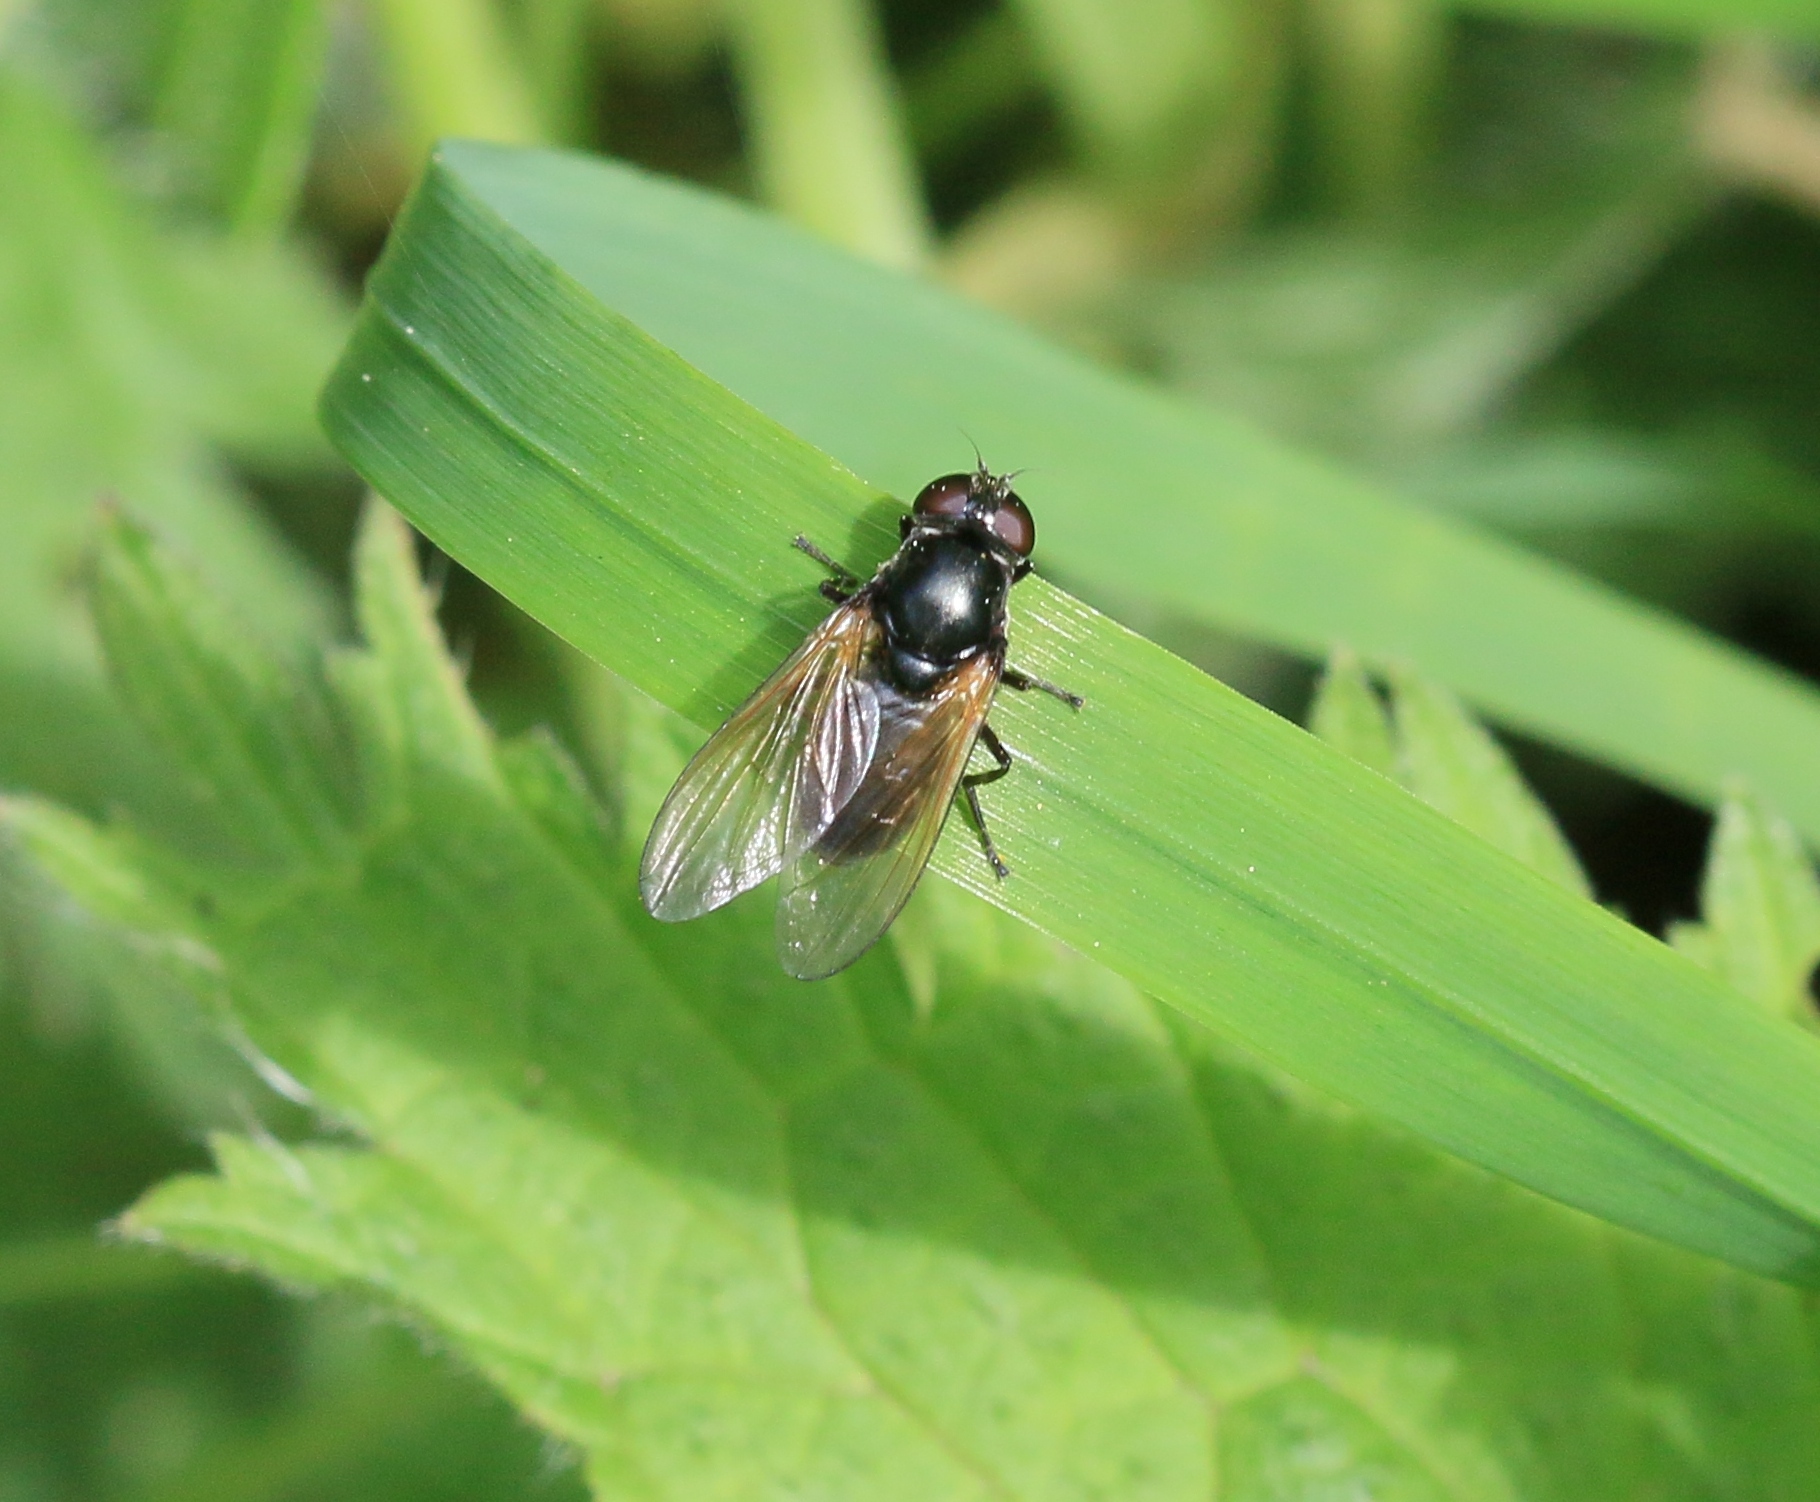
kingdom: Animalia
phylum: Arthropoda
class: Insecta
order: Diptera
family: Syrphidae
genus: Cheilosia
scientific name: Cheilosia impressa
